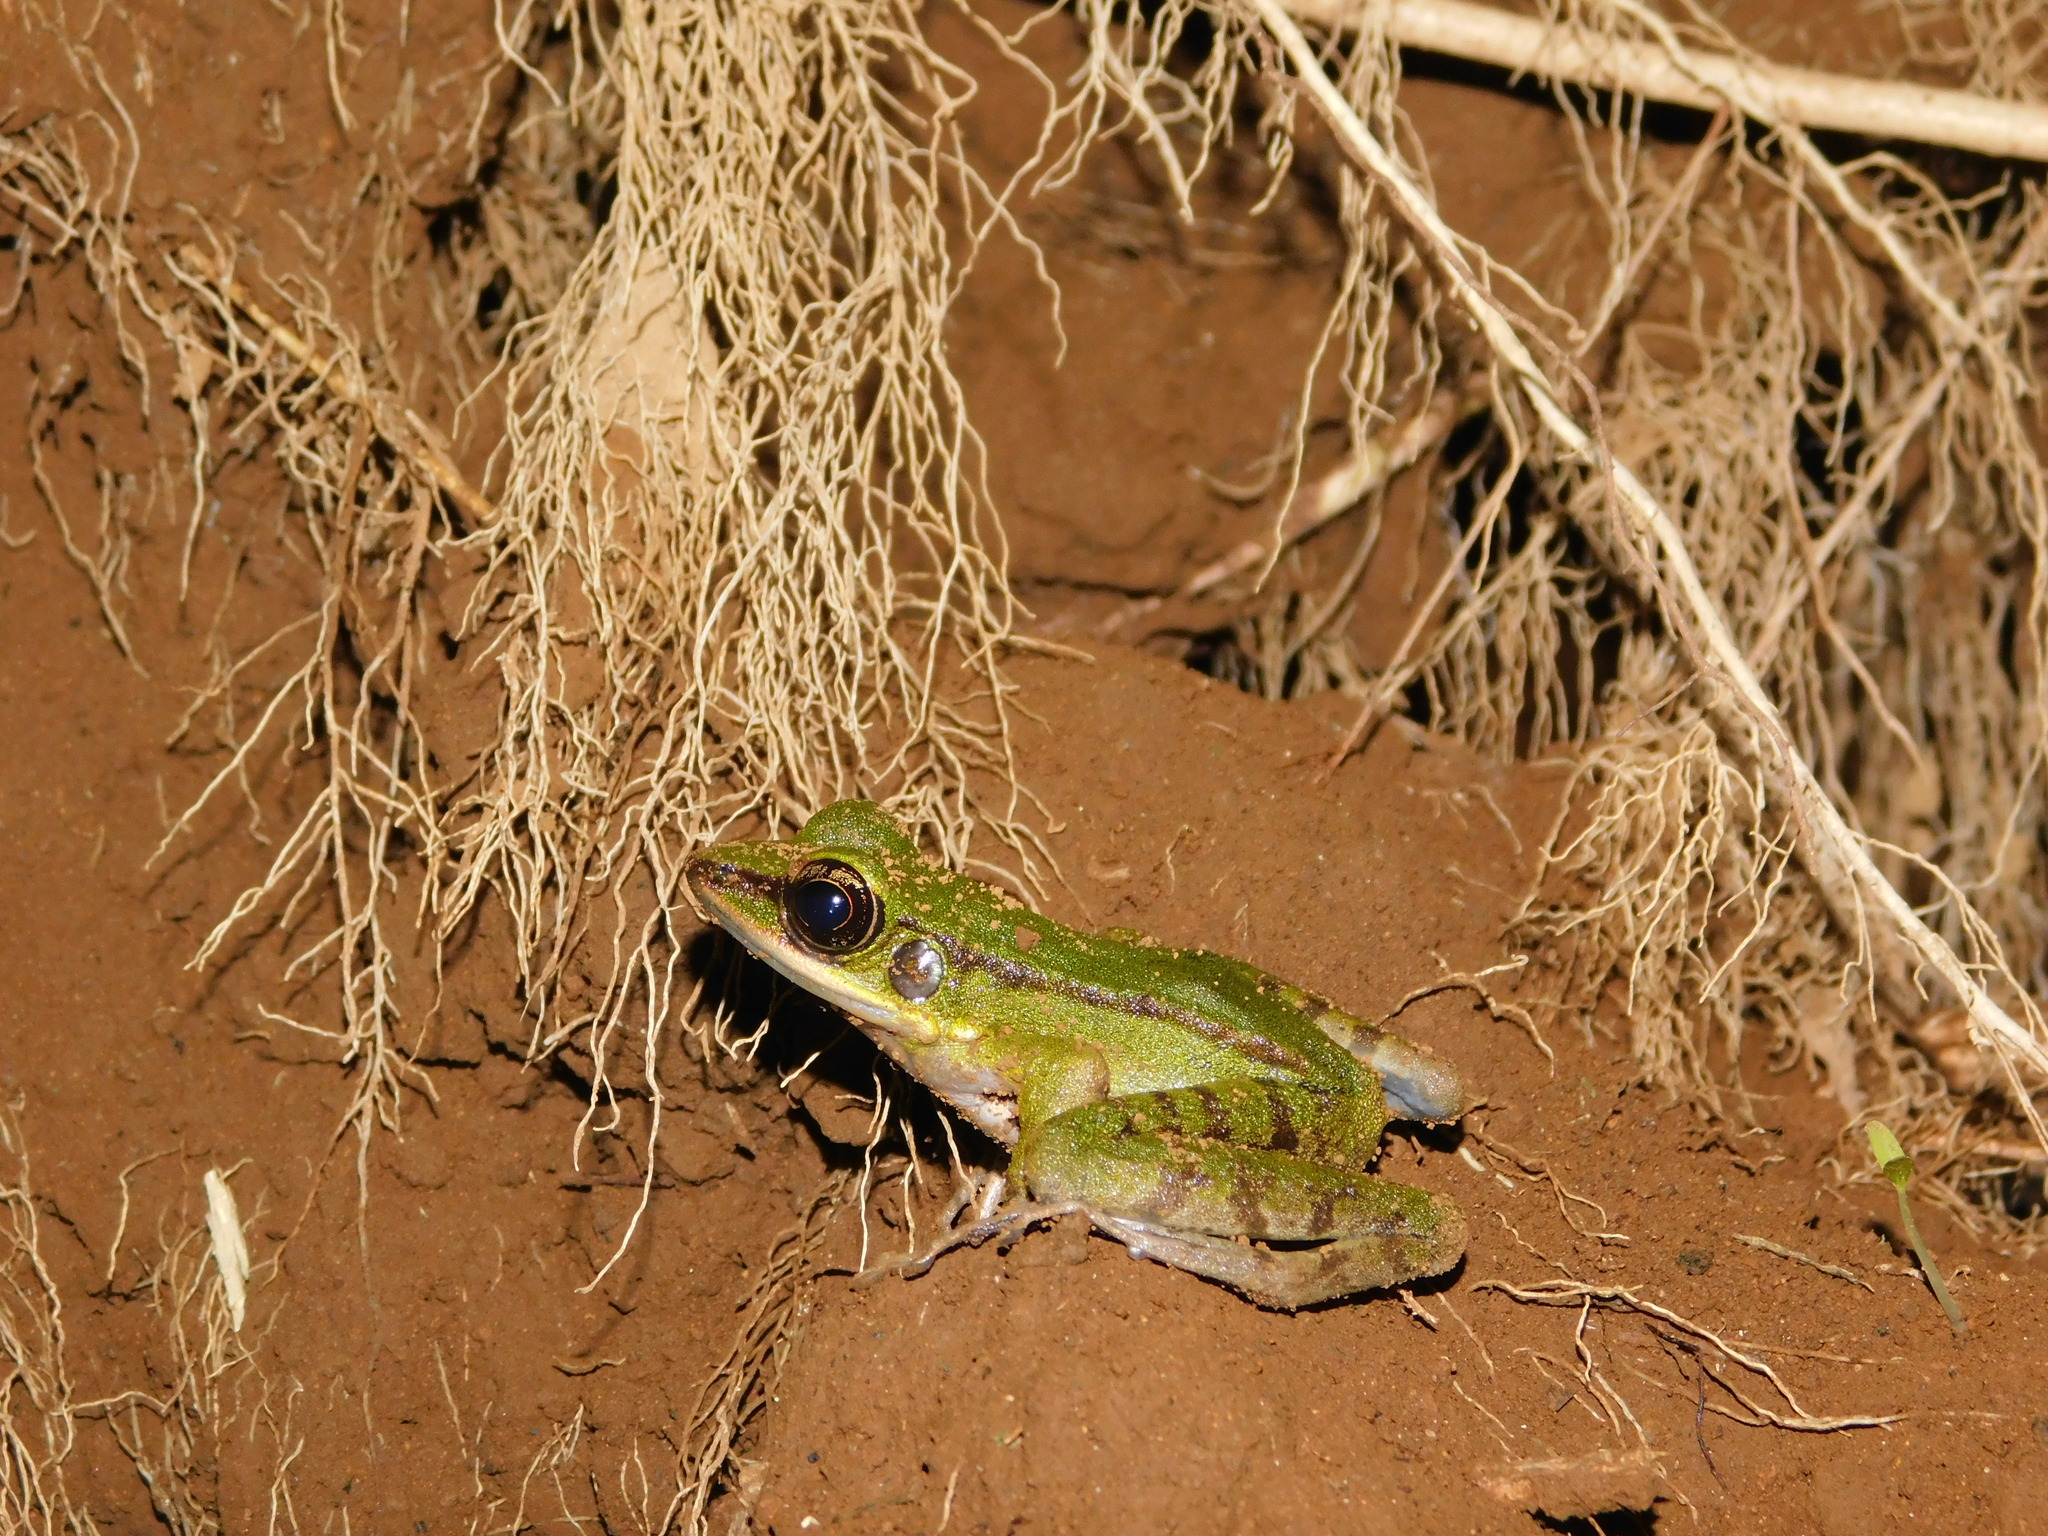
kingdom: Animalia
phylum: Chordata
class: Amphibia
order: Anura
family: Ranidae
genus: Odorrana
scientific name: Odorrana hosii
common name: Green tree frog
